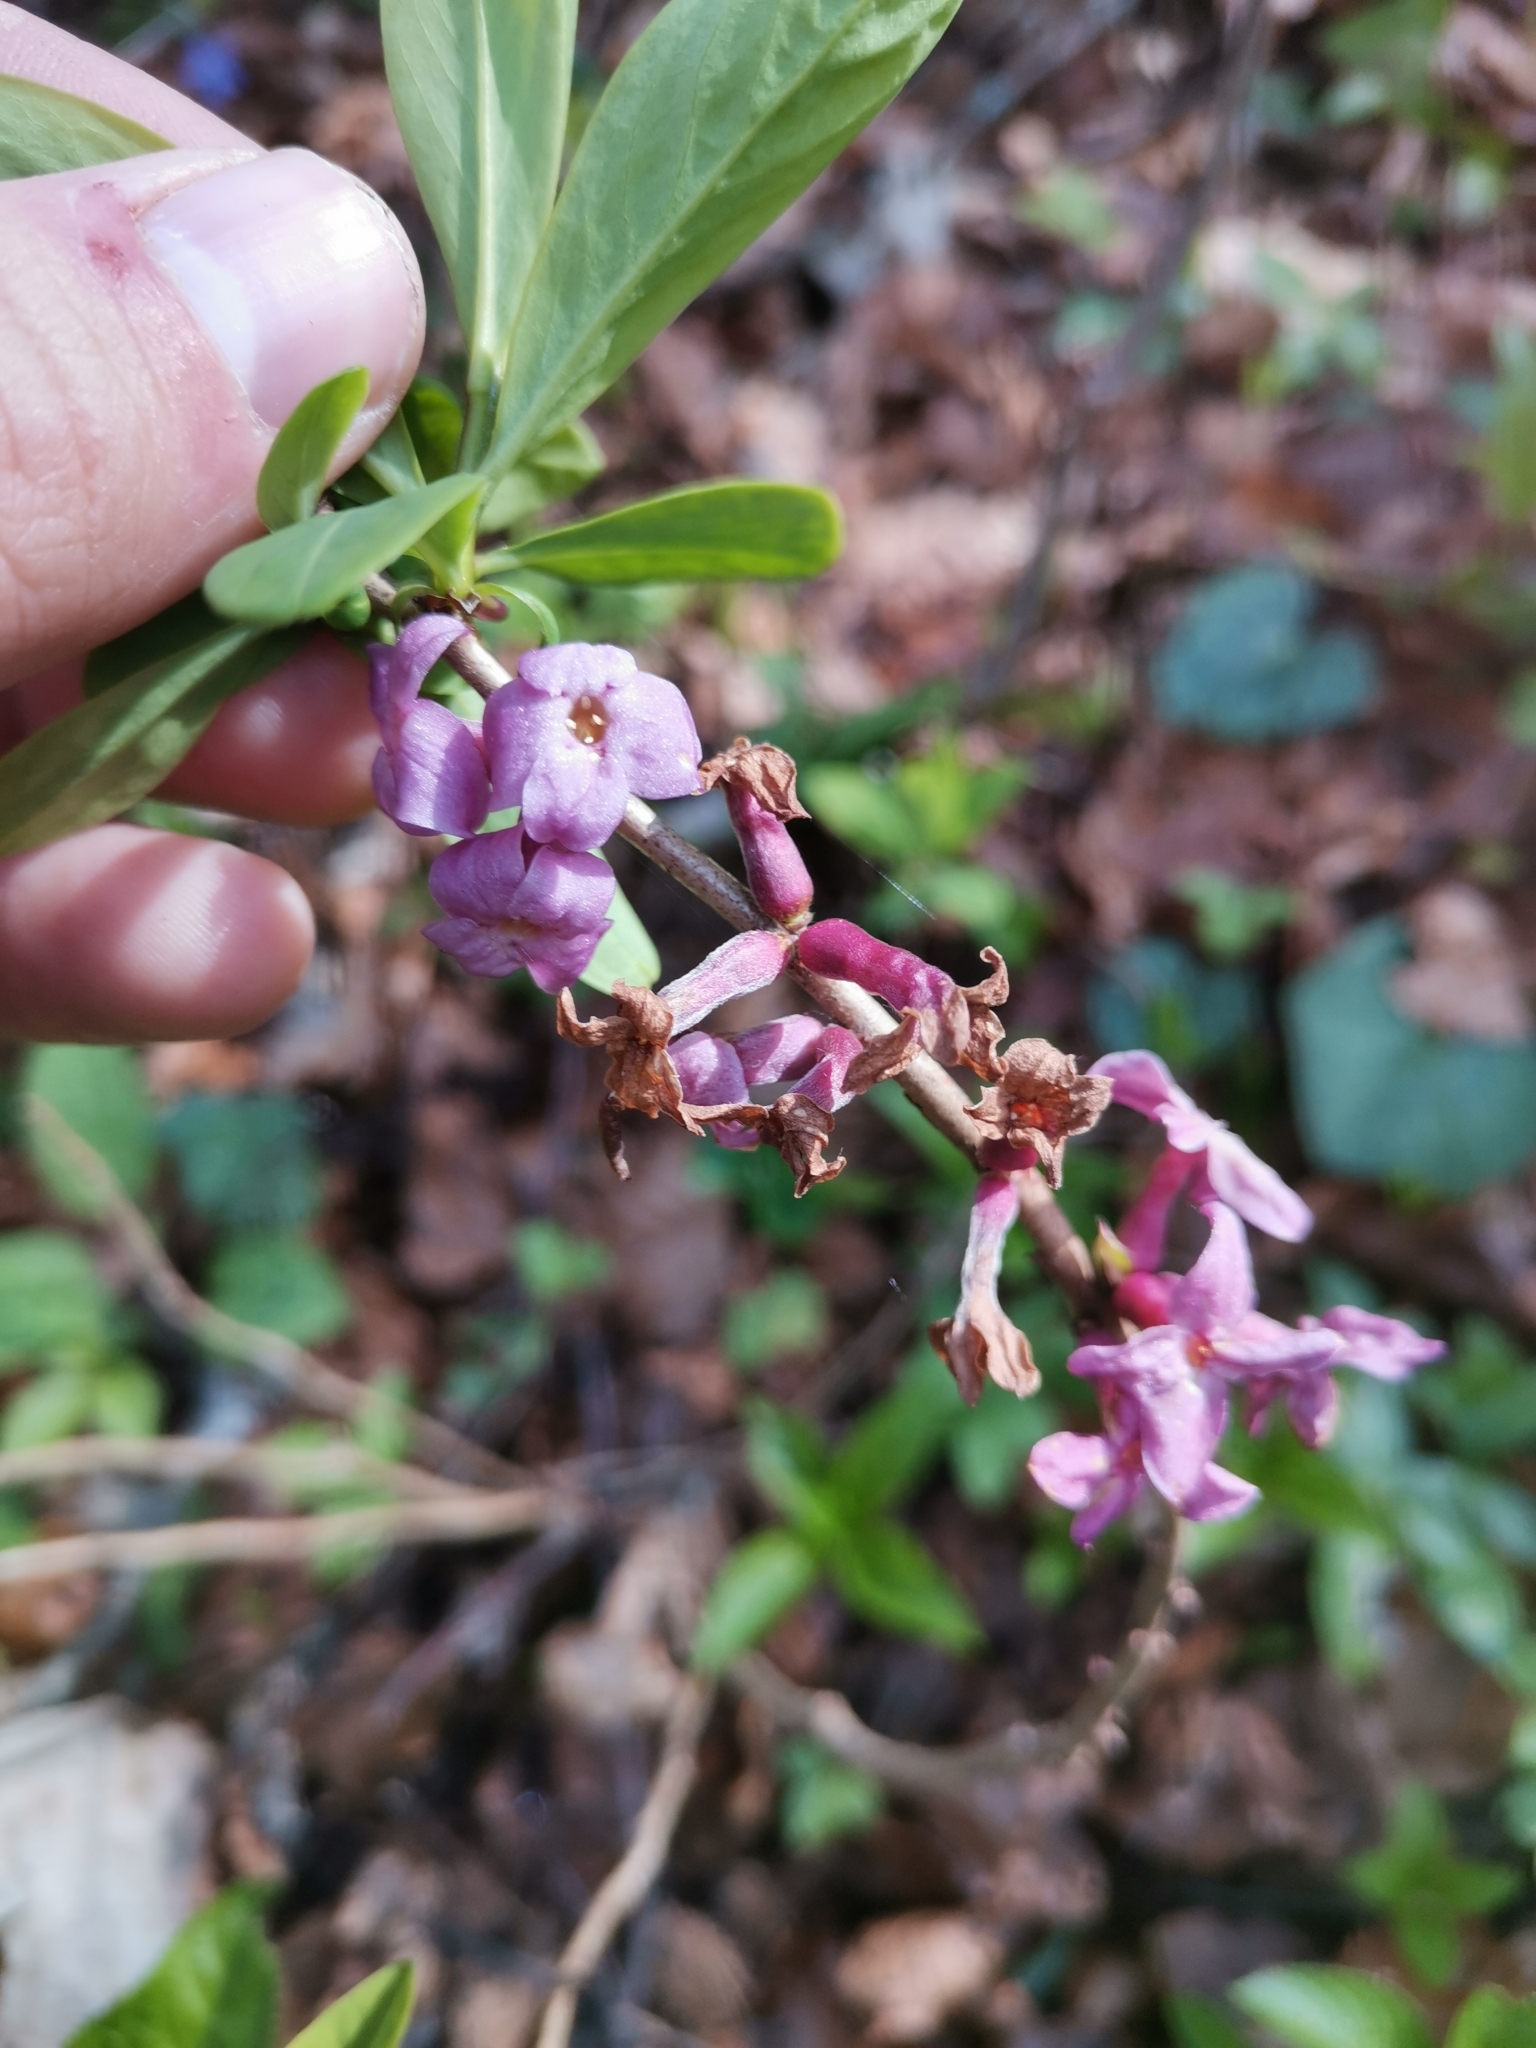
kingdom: Plantae
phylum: Tracheophyta
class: Magnoliopsida
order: Malvales
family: Thymelaeaceae
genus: Daphne
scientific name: Daphne mezereum
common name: Mezereon
